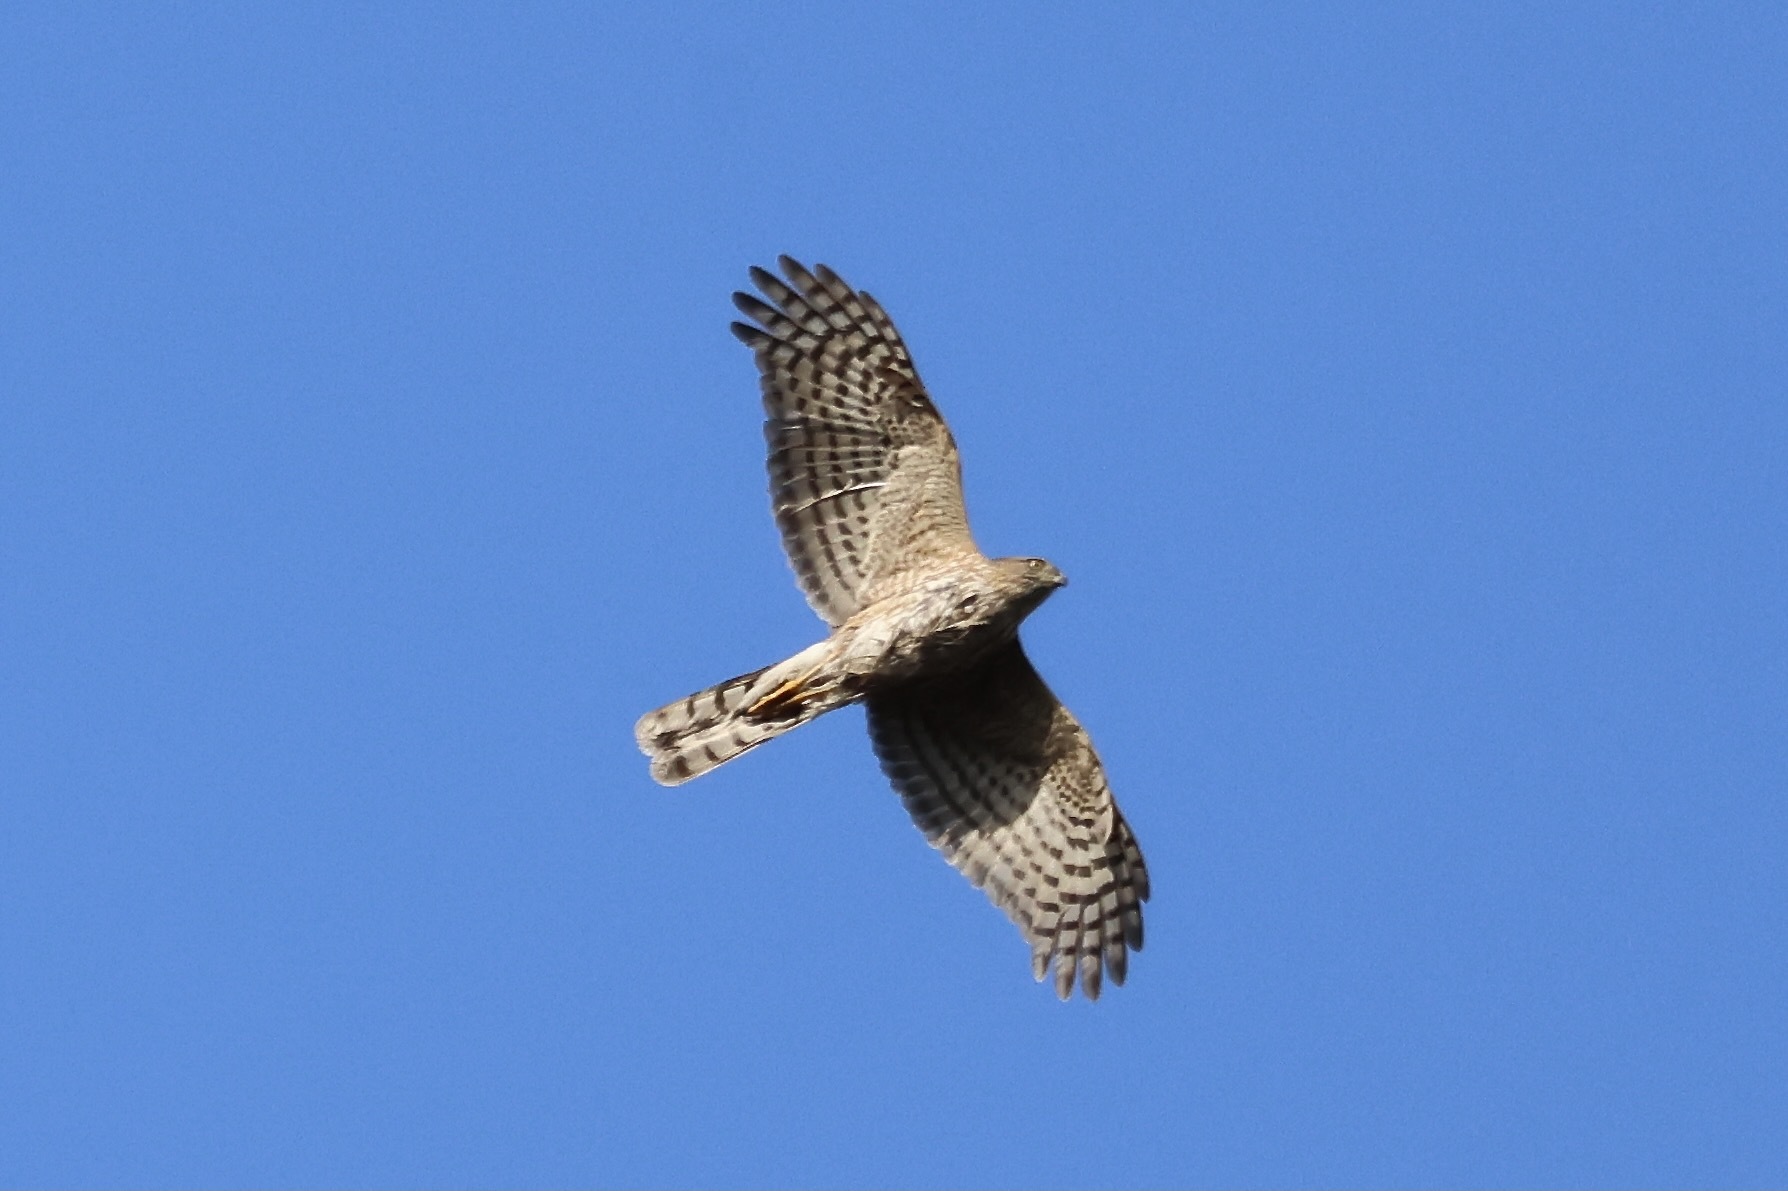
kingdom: Animalia
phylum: Chordata
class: Aves
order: Accipitriformes
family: Accipitridae
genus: Accipiter
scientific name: Accipiter striatus
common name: Sharp-shinned hawk
